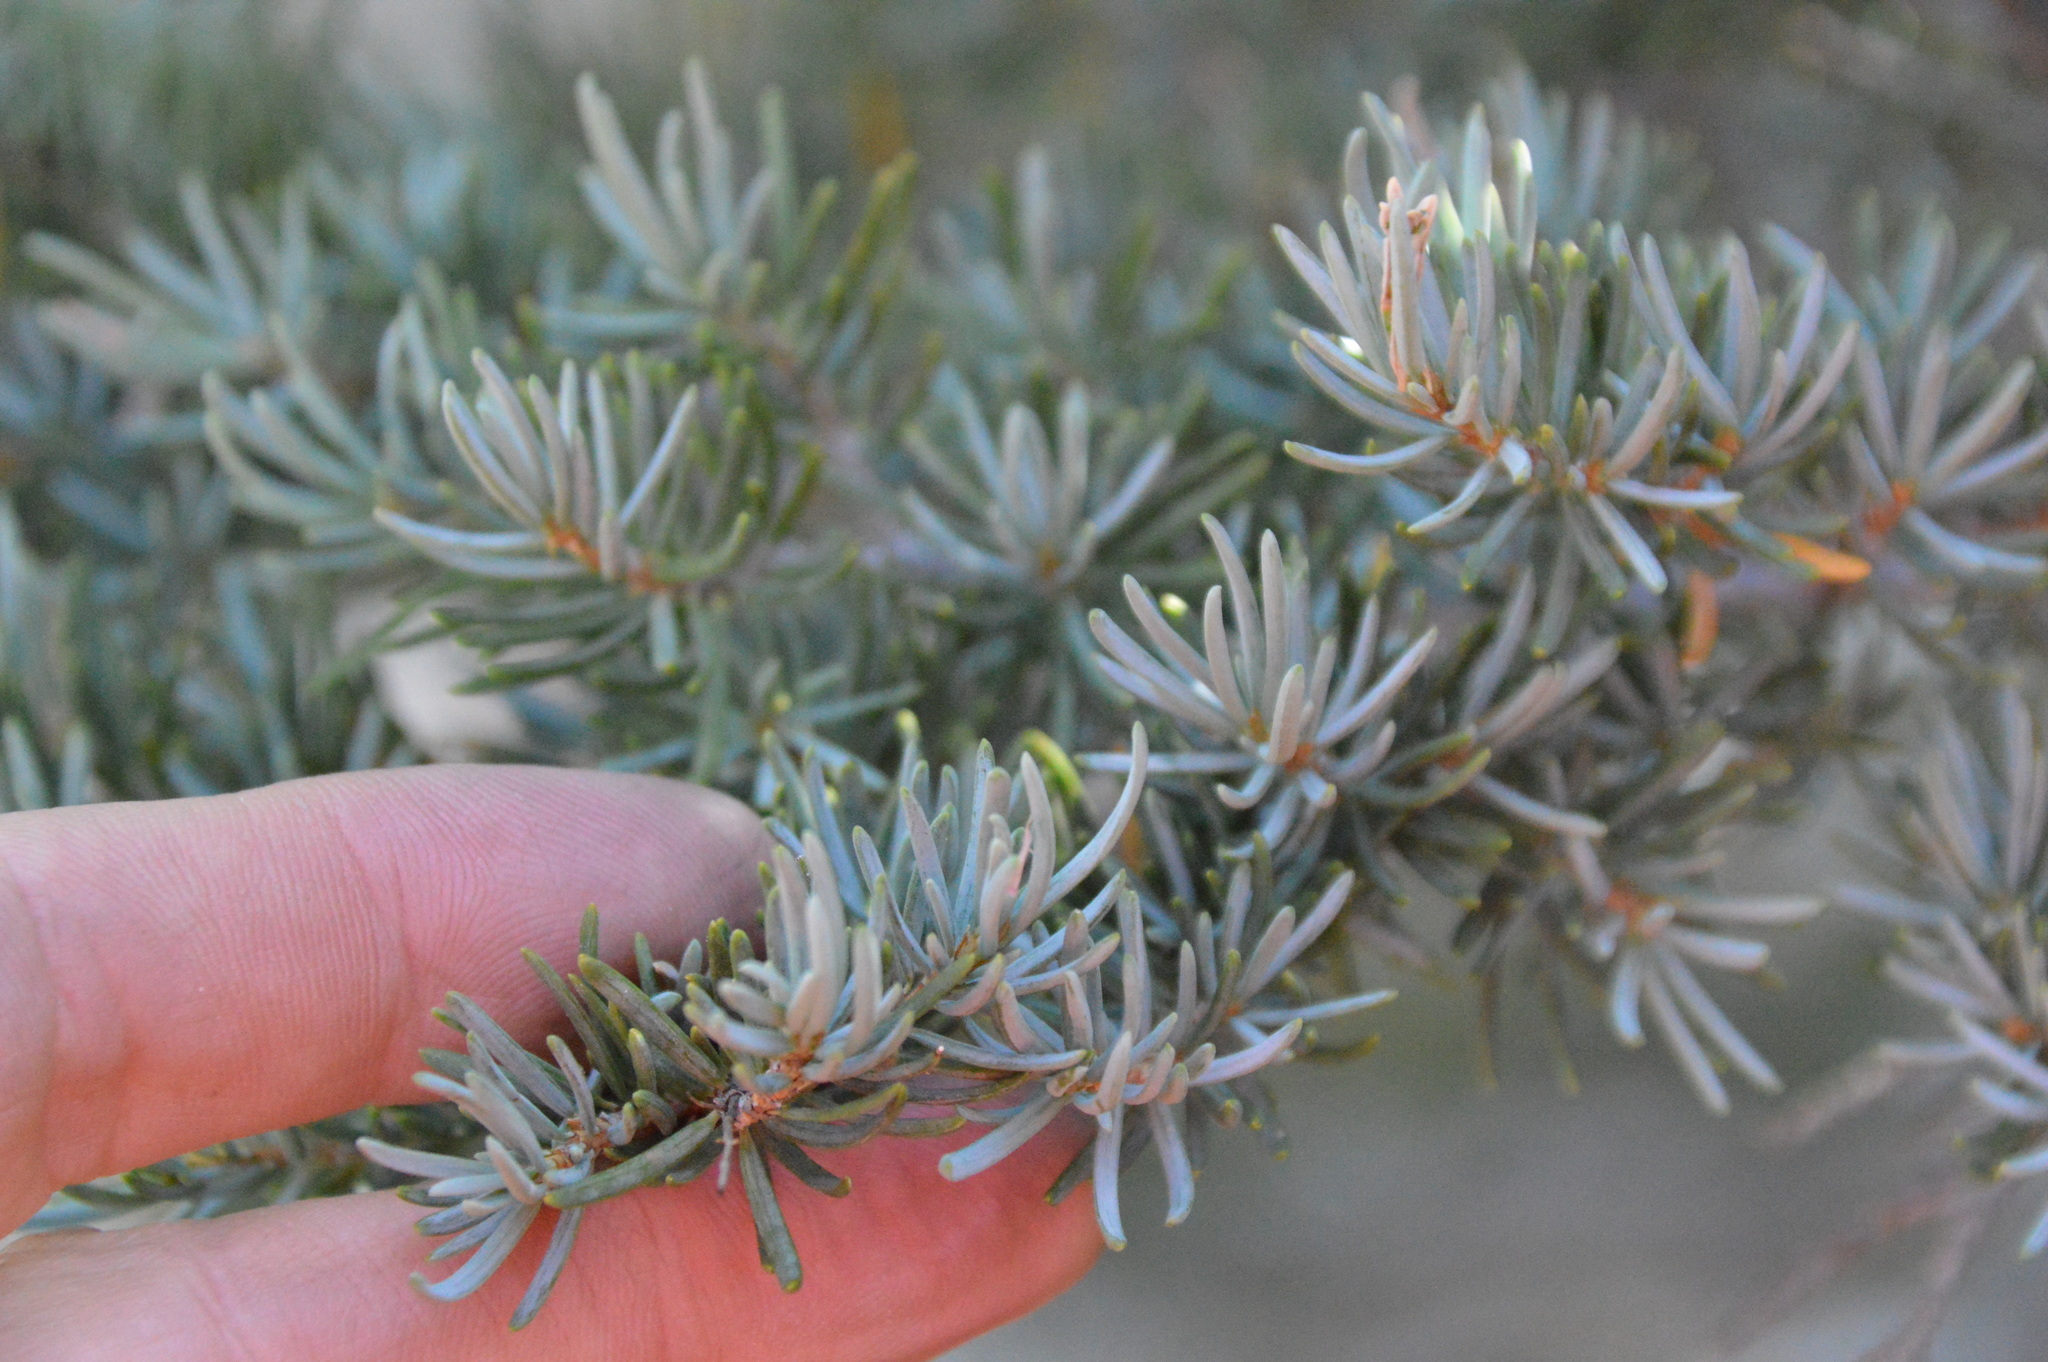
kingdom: Plantae
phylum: Tracheophyta
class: Pinopsida
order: Pinales
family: Pinaceae
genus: Tsuga
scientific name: Tsuga mertensiana
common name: Mountain hemlock
